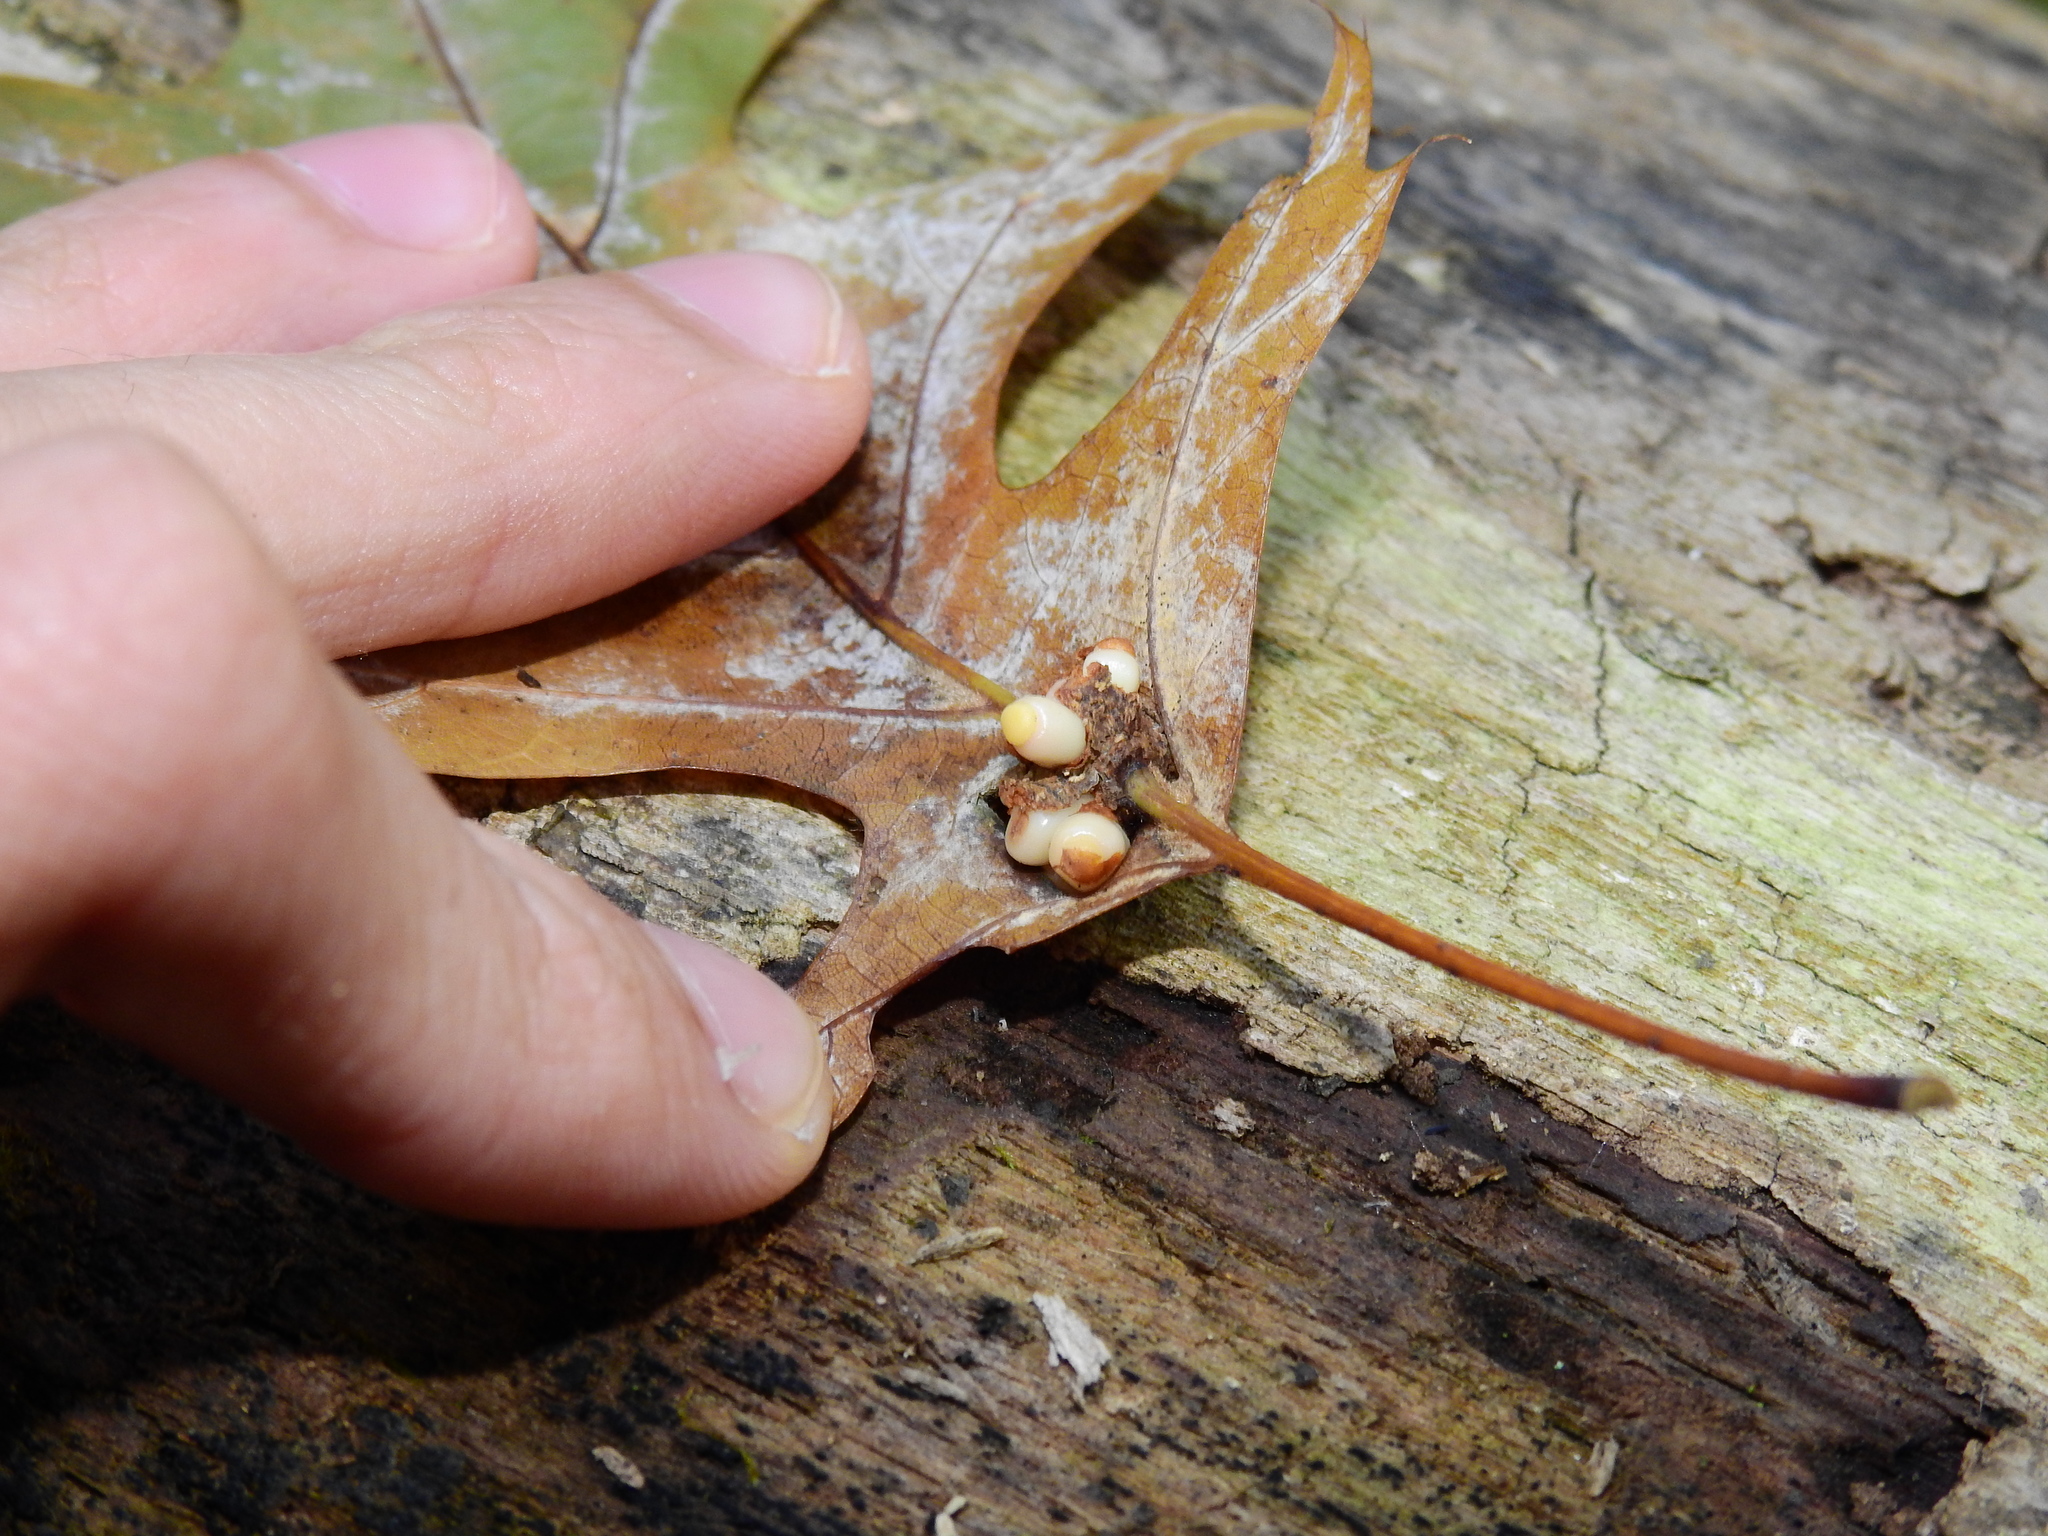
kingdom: Animalia
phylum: Arthropoda
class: Insecta
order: Hymenoptera
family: Cynipidae
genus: Kokkocynips
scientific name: Kokkocynips decidua
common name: Oak wheat gall
